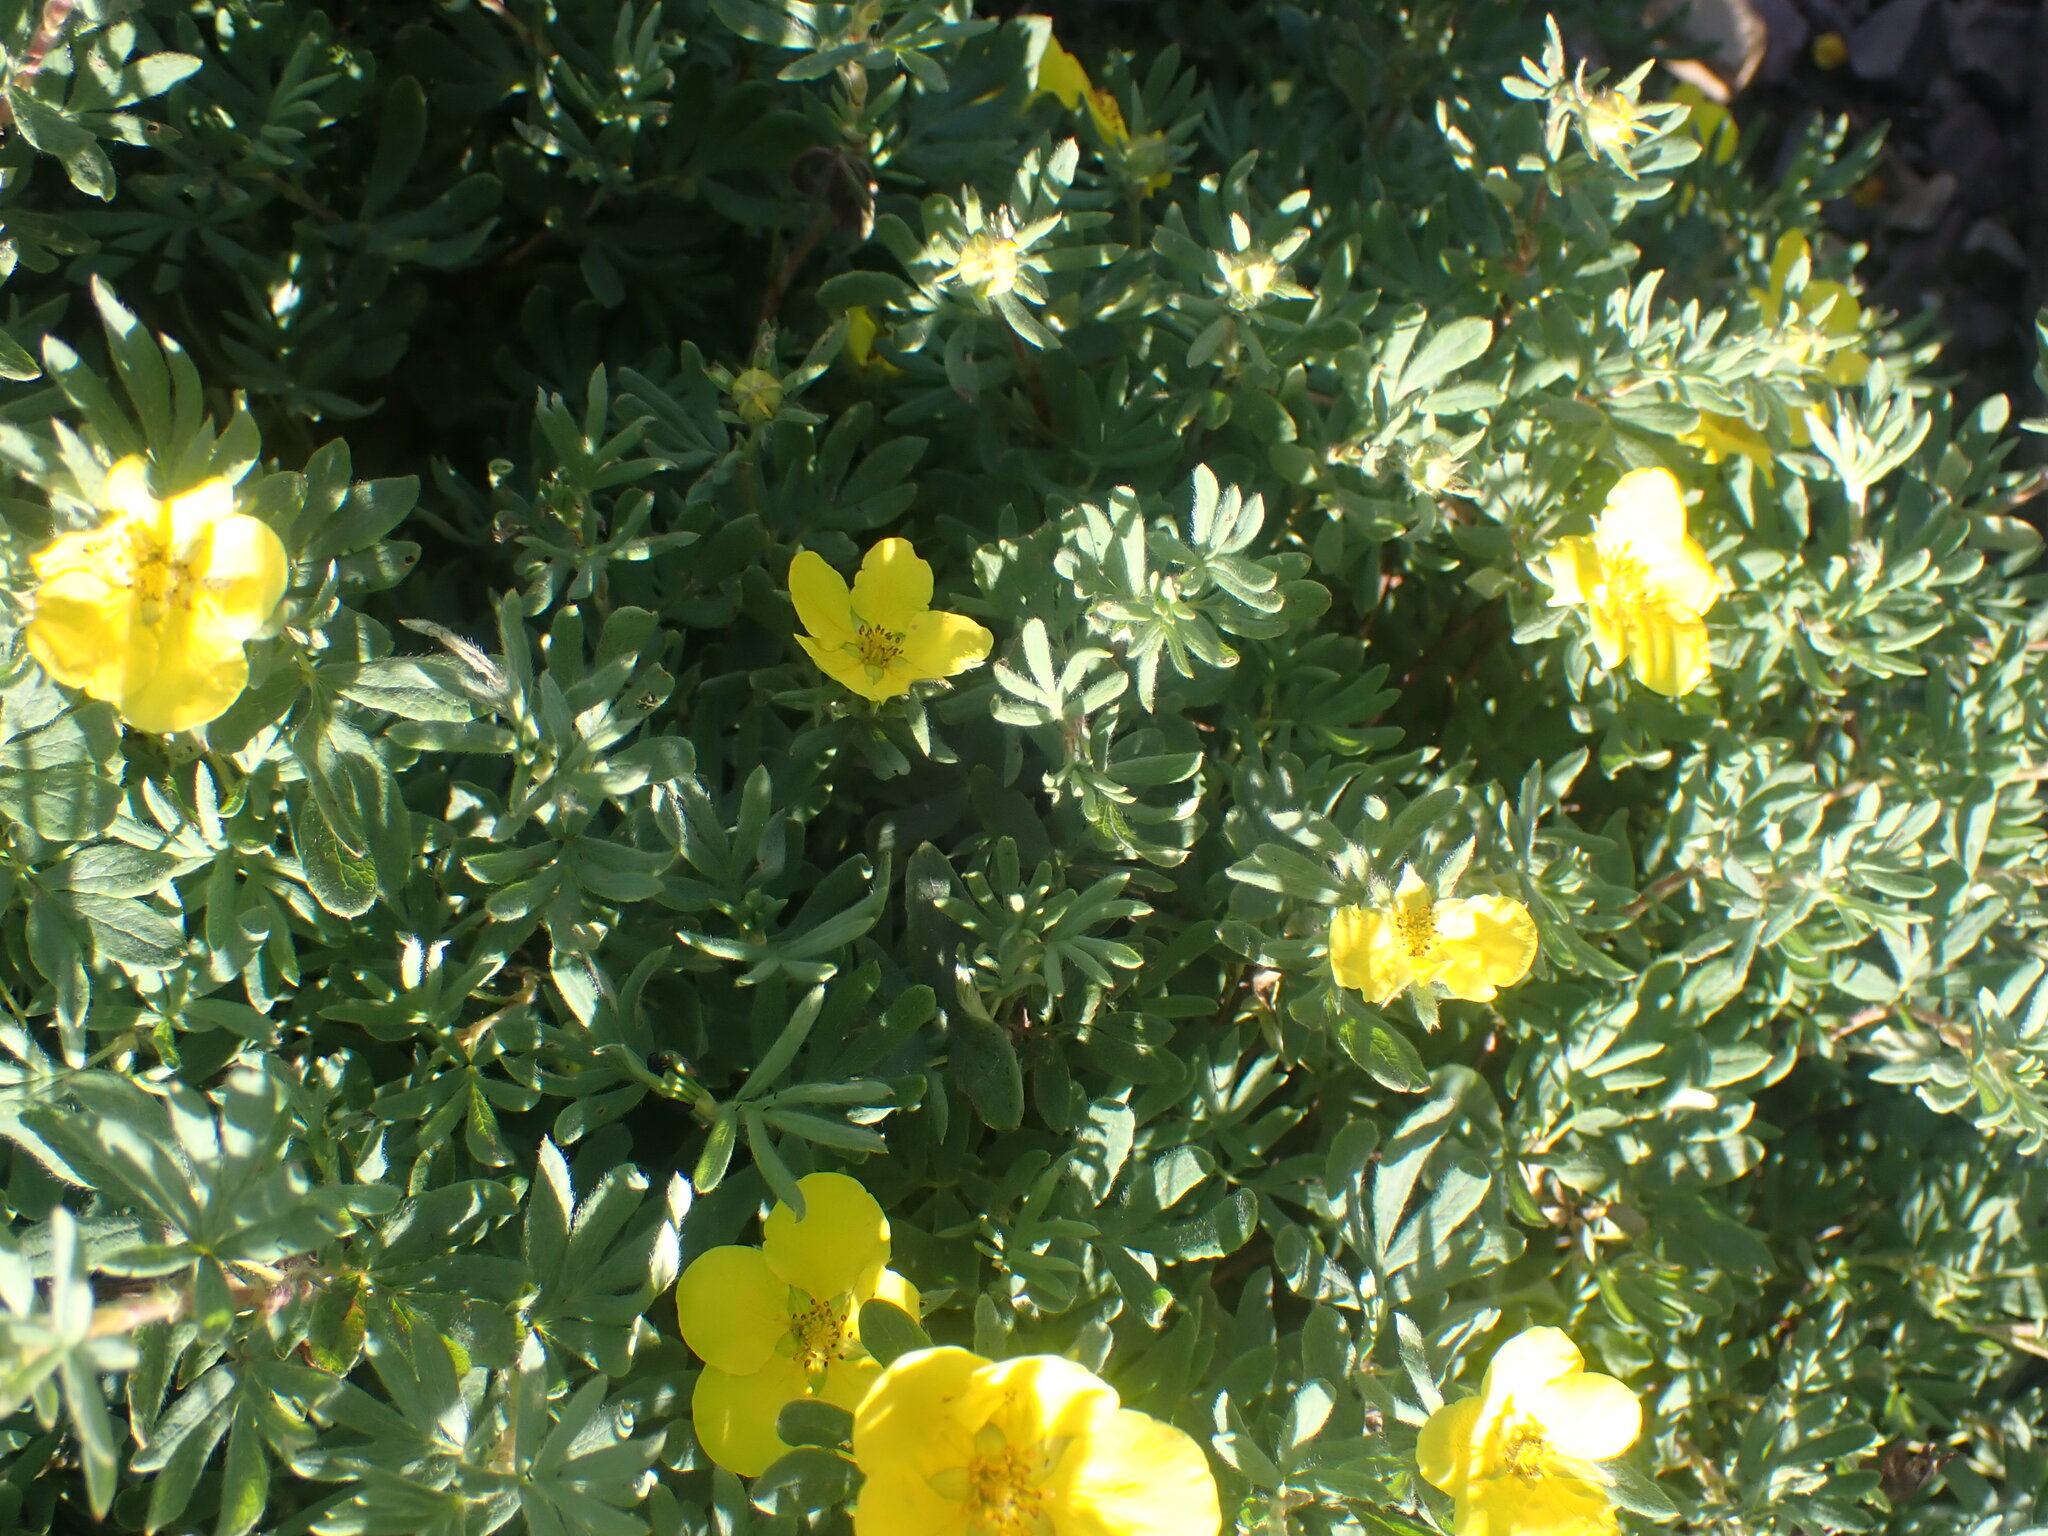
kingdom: Plantae
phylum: Tracheophyta
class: Magnoliopsida
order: Rosales
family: Rosaceae
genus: Dasiphora
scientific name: Dasiphora fruticosa
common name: Shrubby cinquefoil
